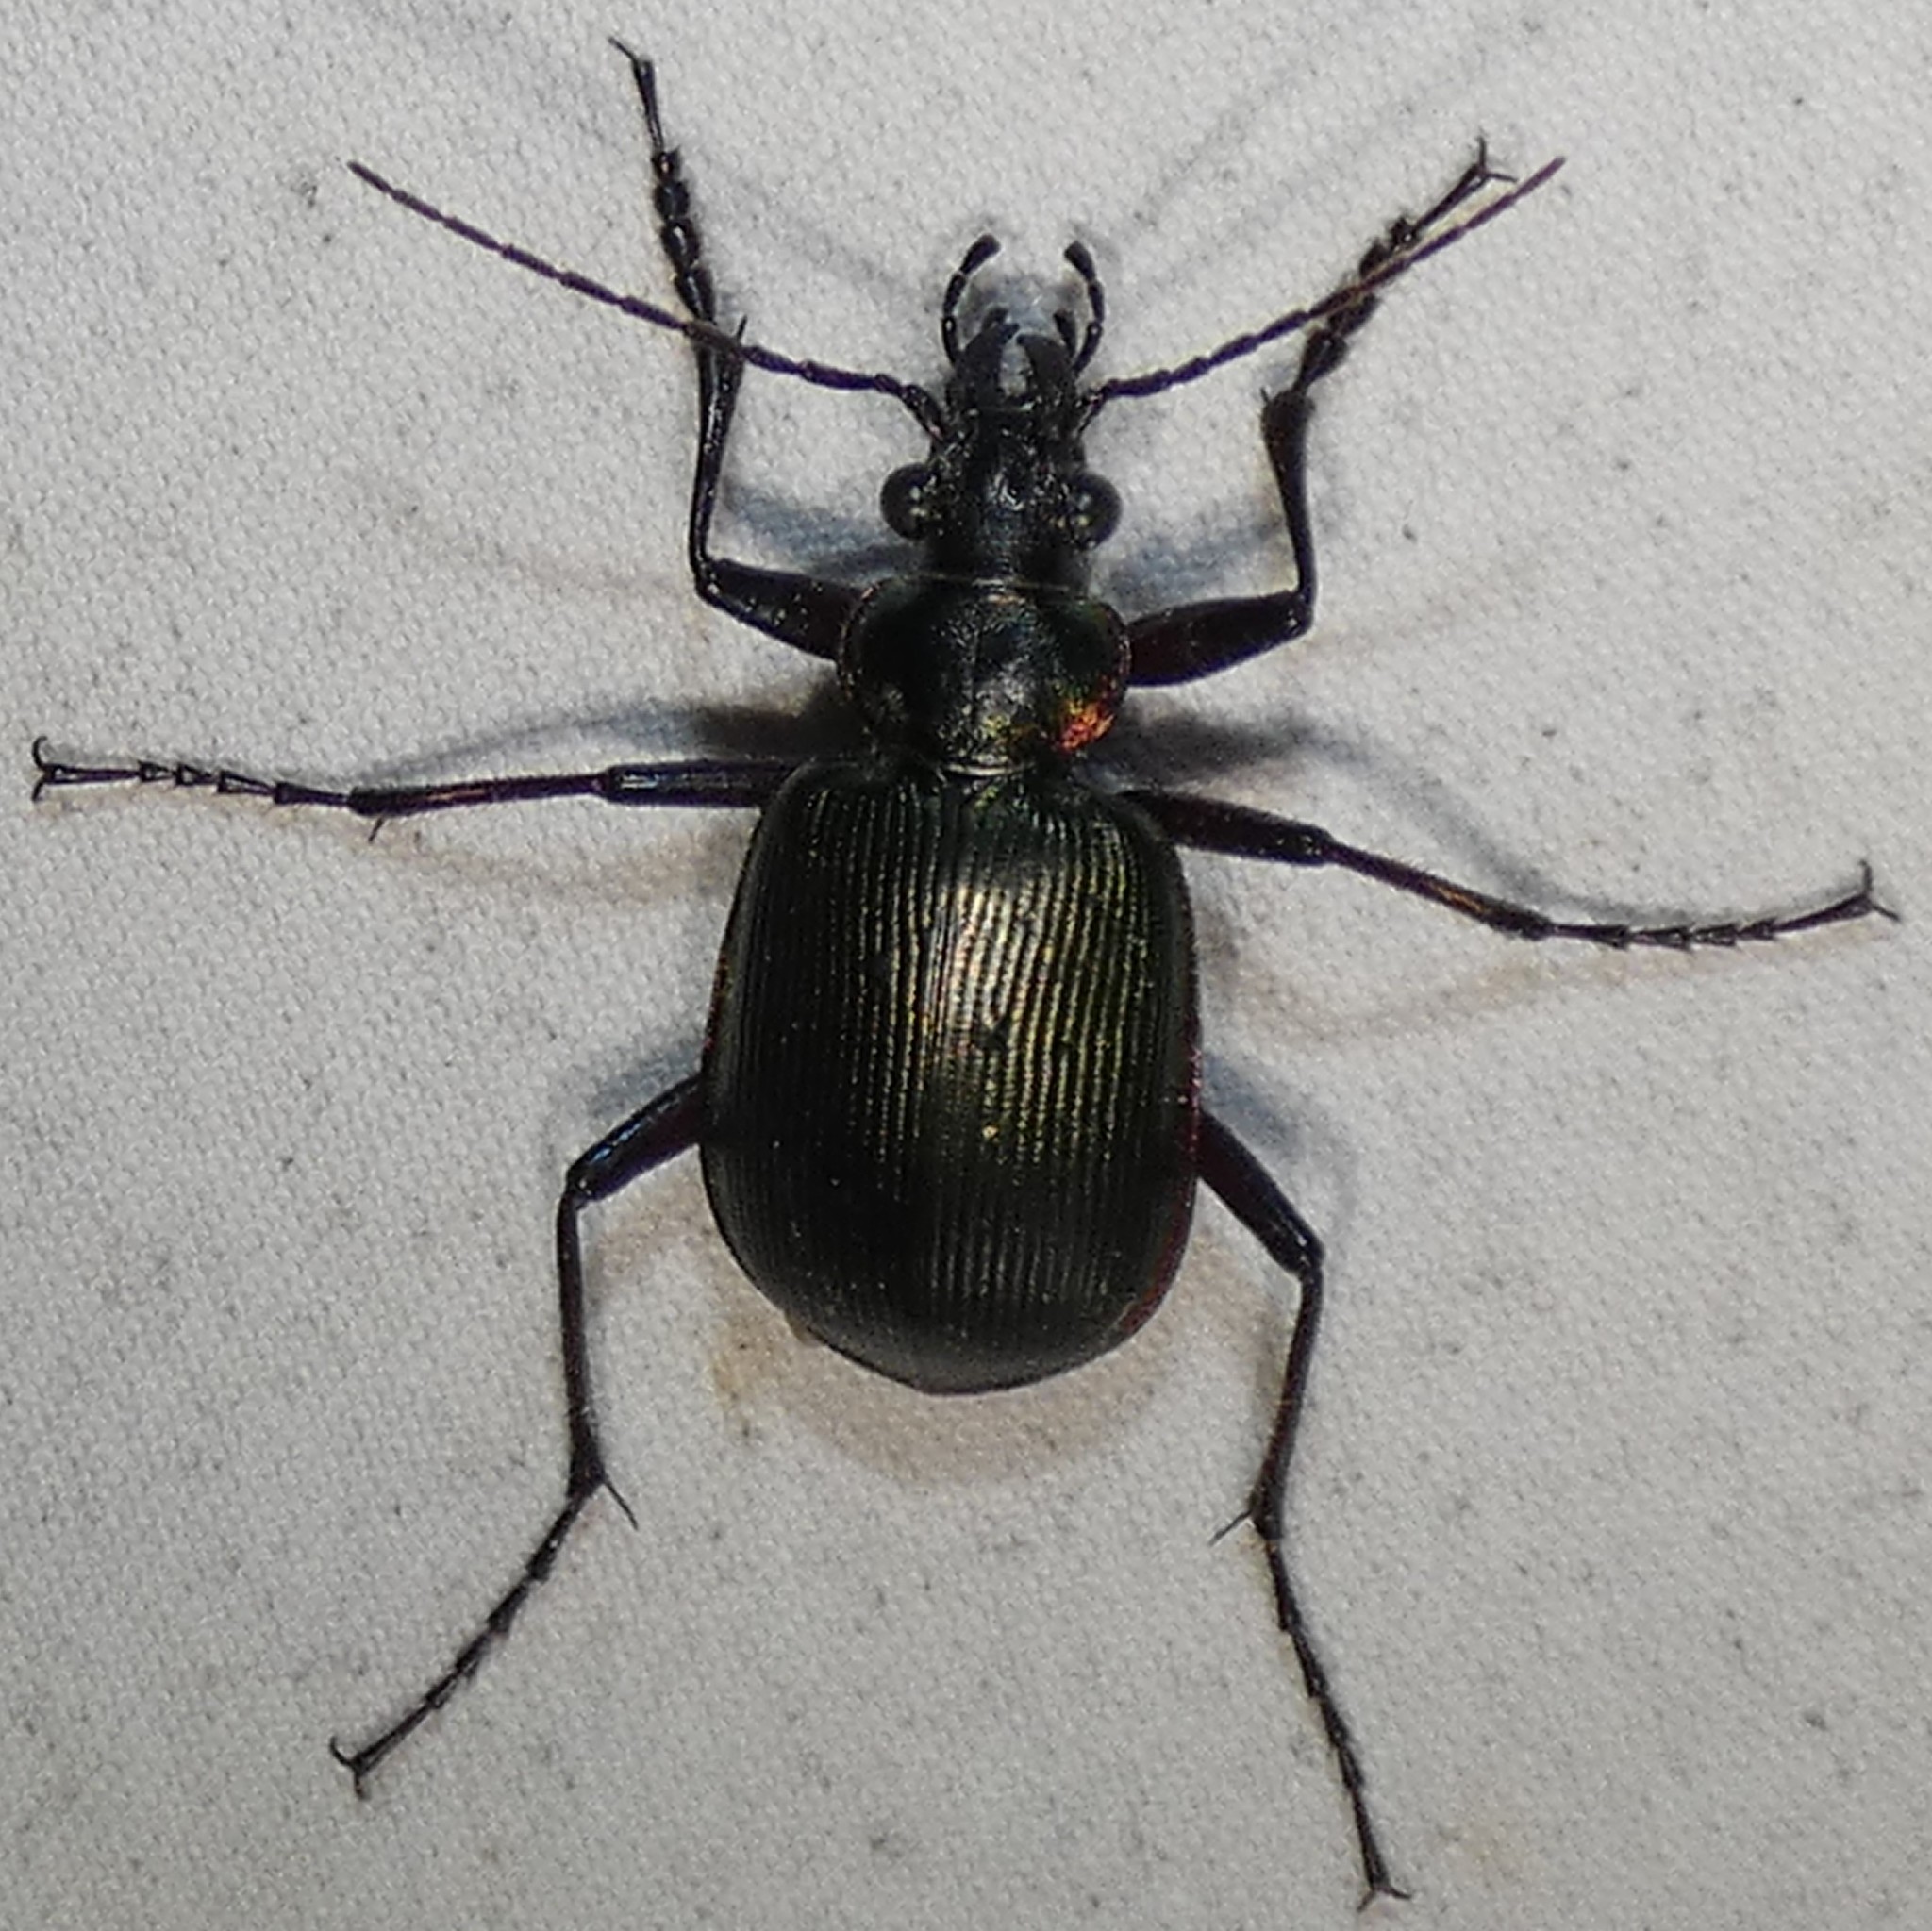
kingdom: Animalia
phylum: Arthropoda
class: Insecta
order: Coleoptera
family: Carabidae
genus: Calosoma
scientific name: Calosoma wilcoxi
